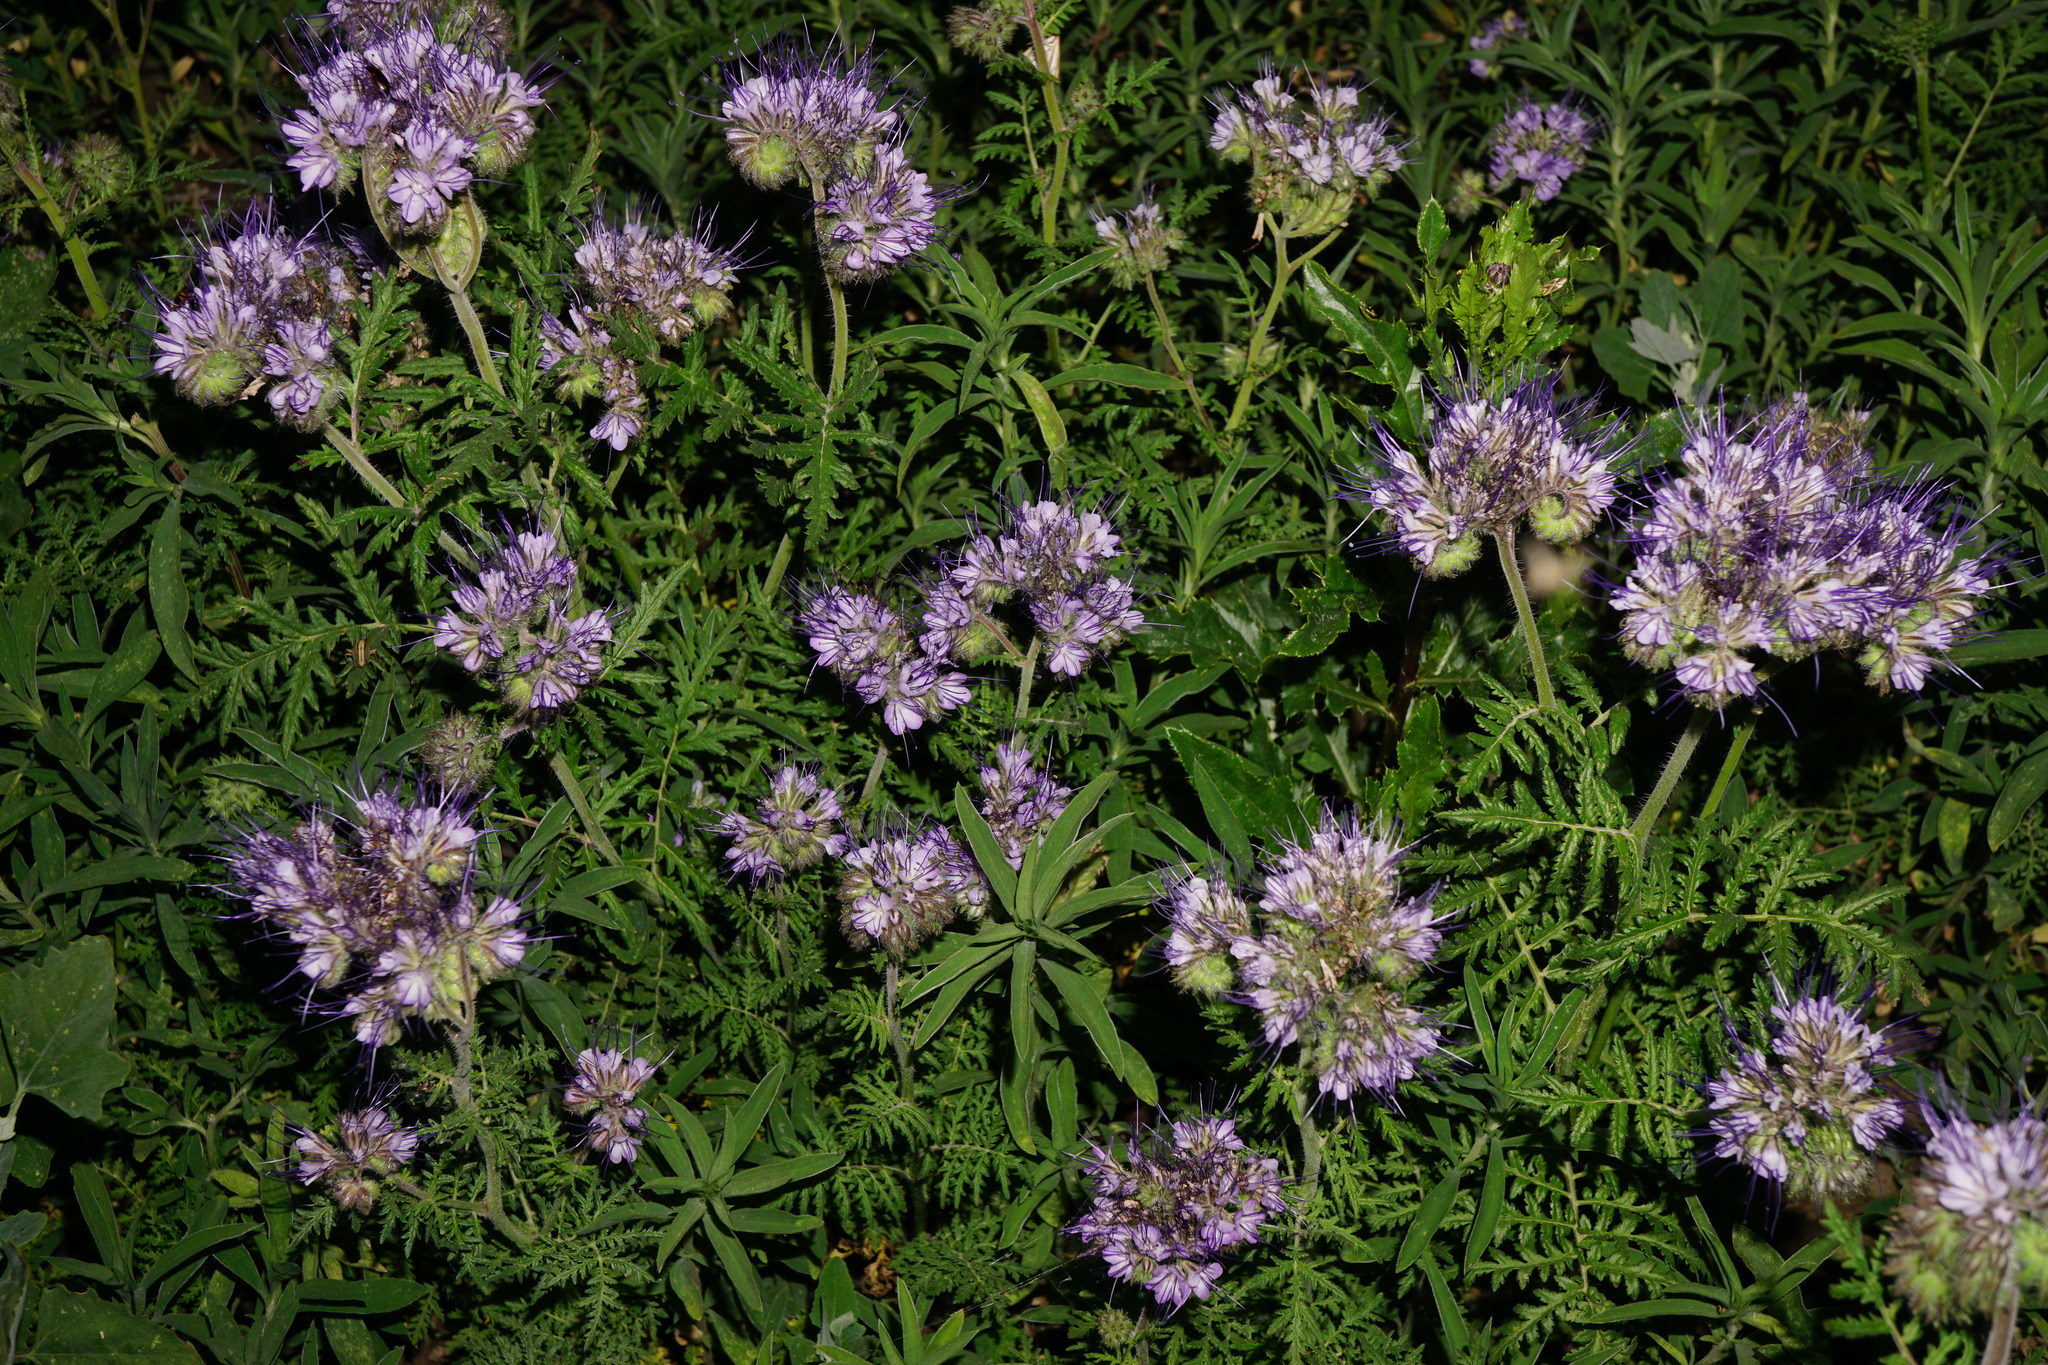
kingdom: Plantae
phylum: Tracheophyta
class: Magnoliopsida
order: Boraginales
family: Hydrophyllaceae
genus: Phacelia
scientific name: Phacelia tanacetifolia
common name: Phacelia
